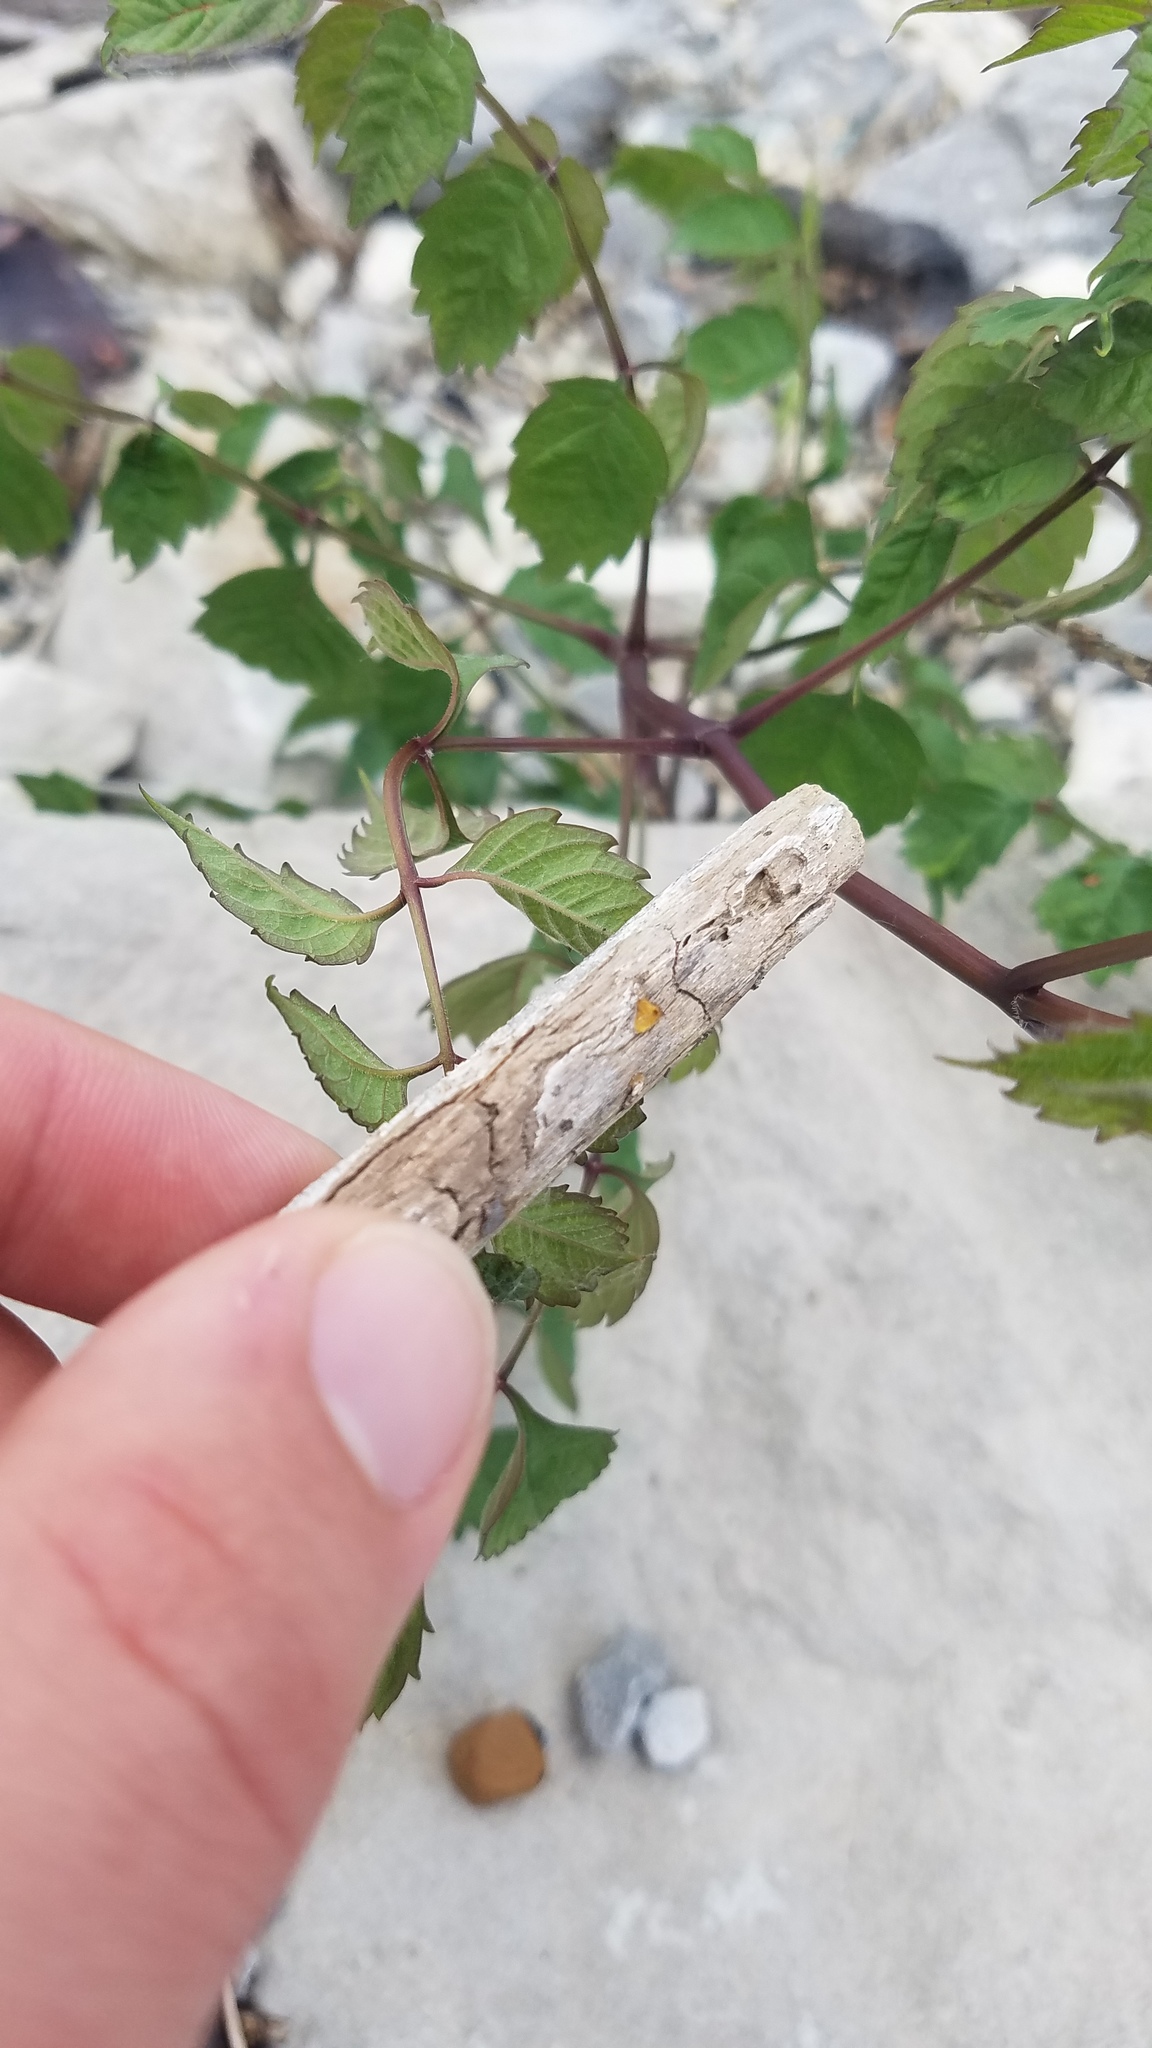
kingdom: Plantae
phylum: Tracheophyta
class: Magnoliopsida
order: Lamiales
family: Bignoniaceae
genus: Campsis
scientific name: Campsis radicans
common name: Trumpet-creeper
